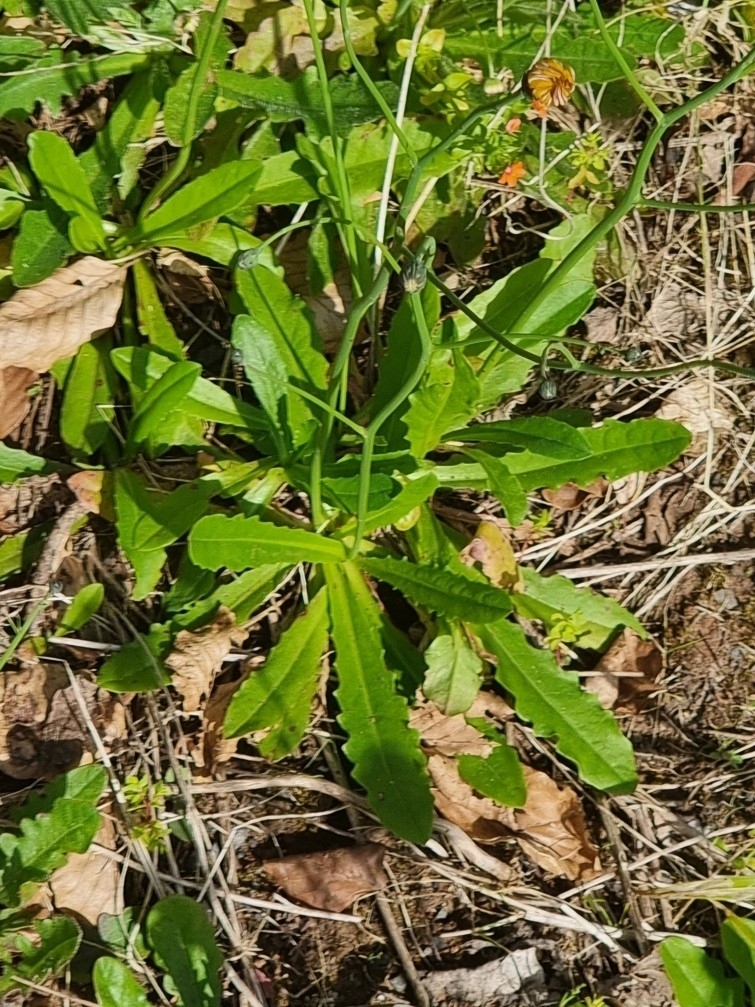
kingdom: Plantae
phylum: Tracheophyta
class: Magnoliopsida
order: Asterales
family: Asteraceae
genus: Hypochaeris
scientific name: Hypochaeris radicata
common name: Flatweed
